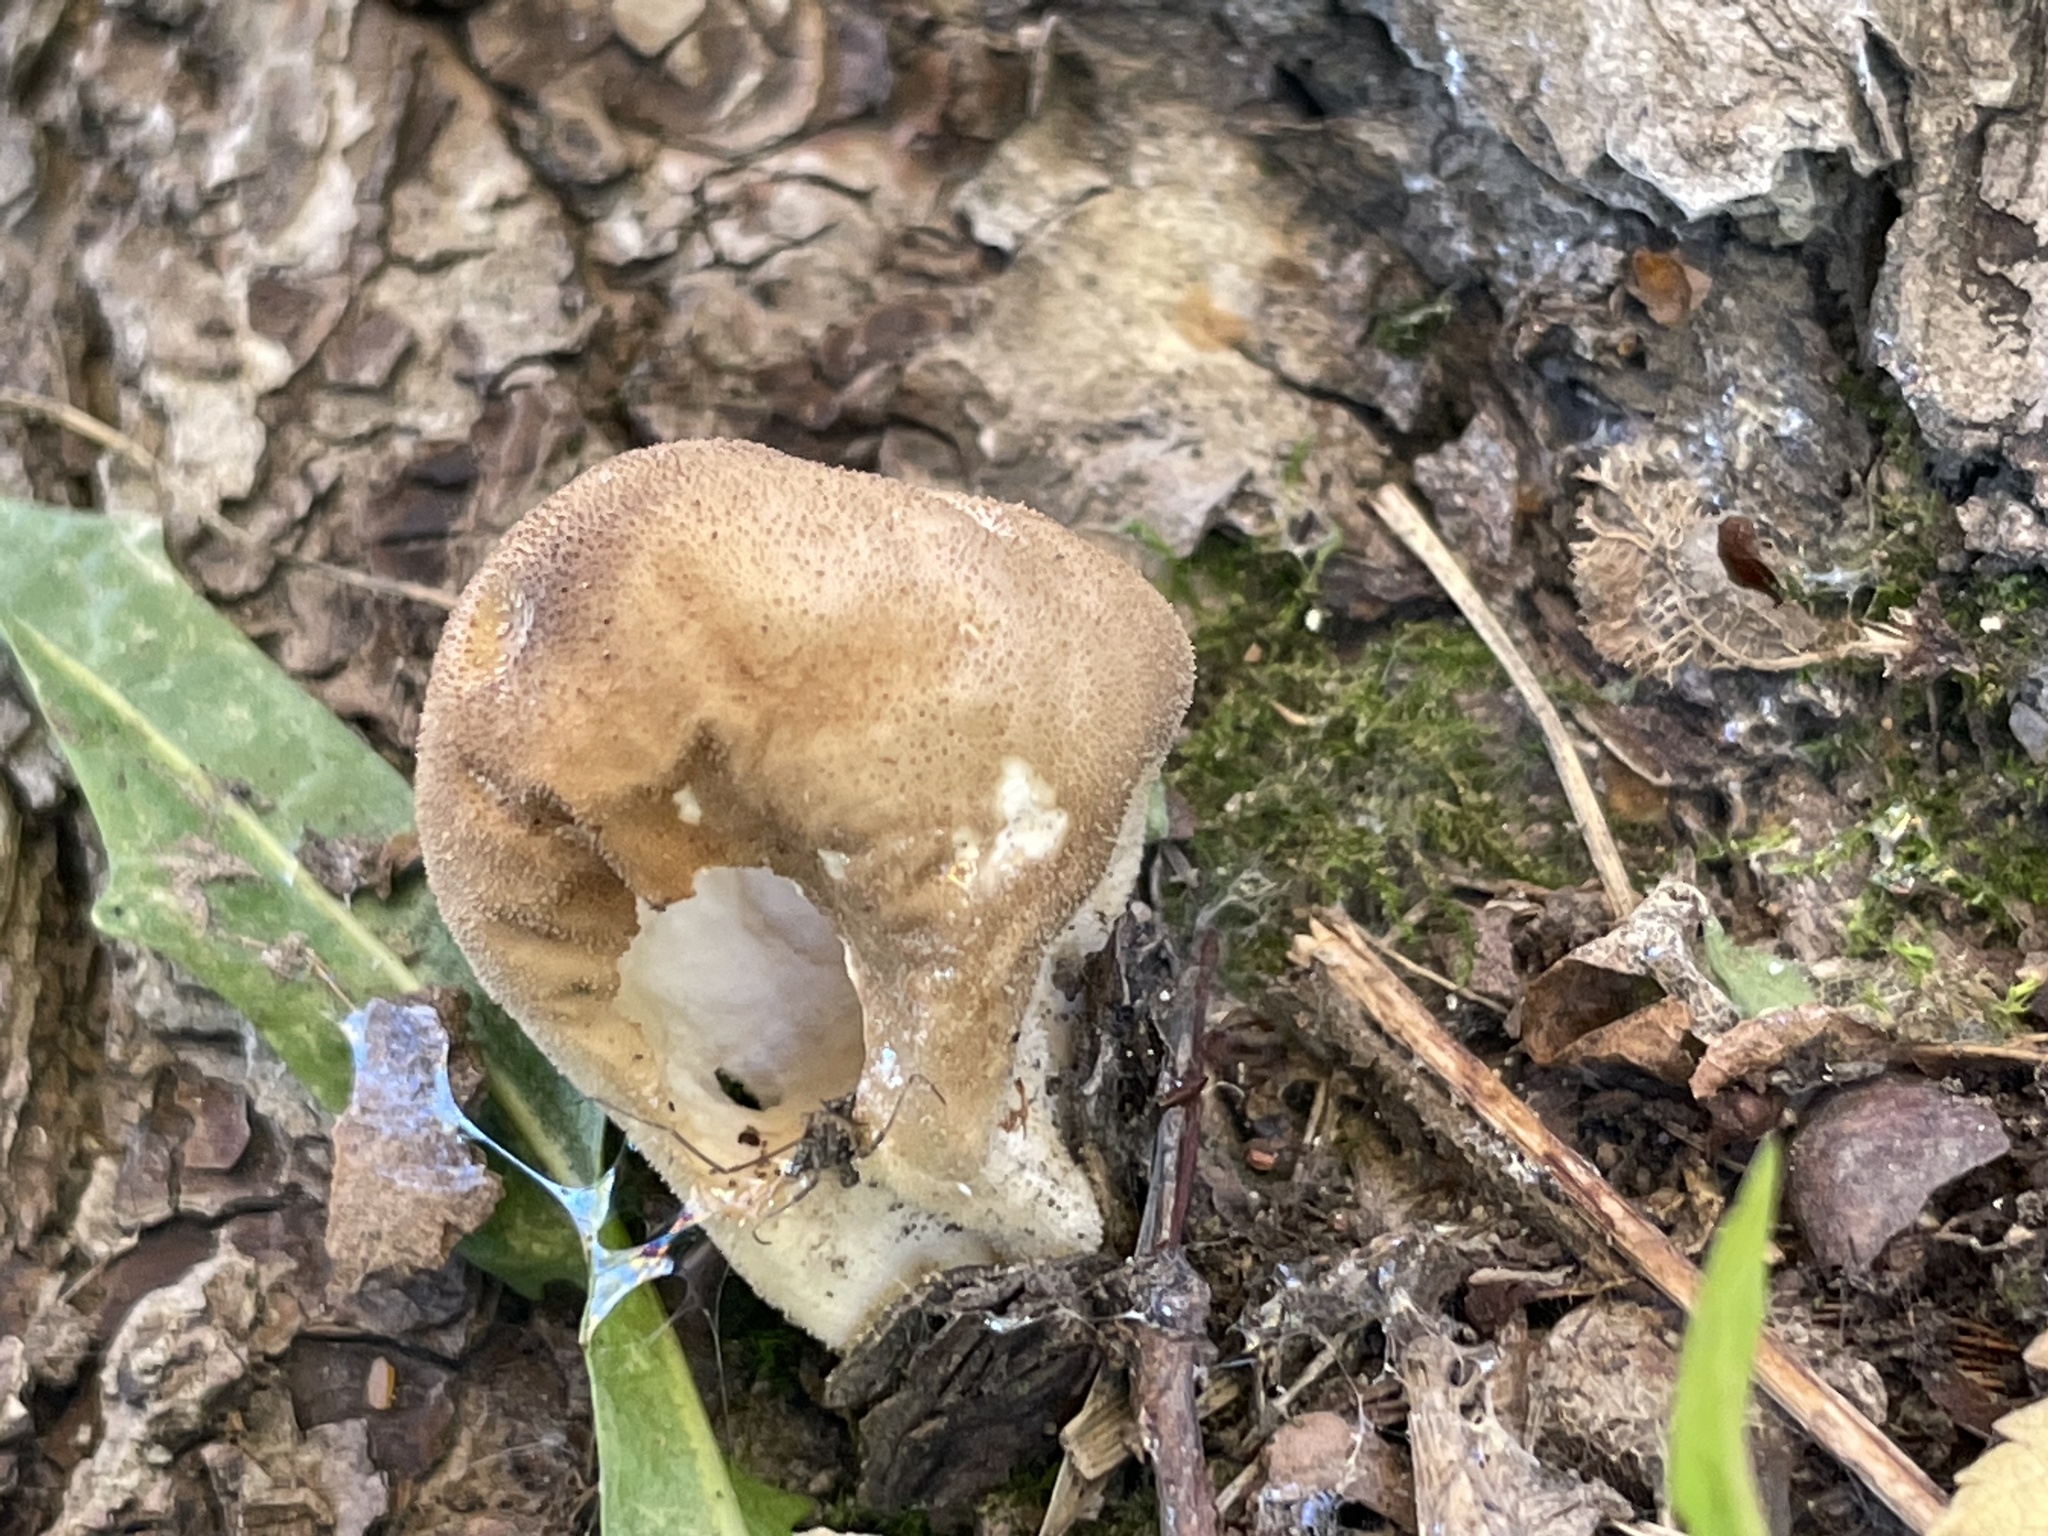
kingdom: Fungi
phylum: Basidiomycota
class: Agaricomycetes
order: Agaricales
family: Lycoperdaceae
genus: Apioperdon
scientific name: Apioperdon pyriforme
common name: Pear-shaped puffball
